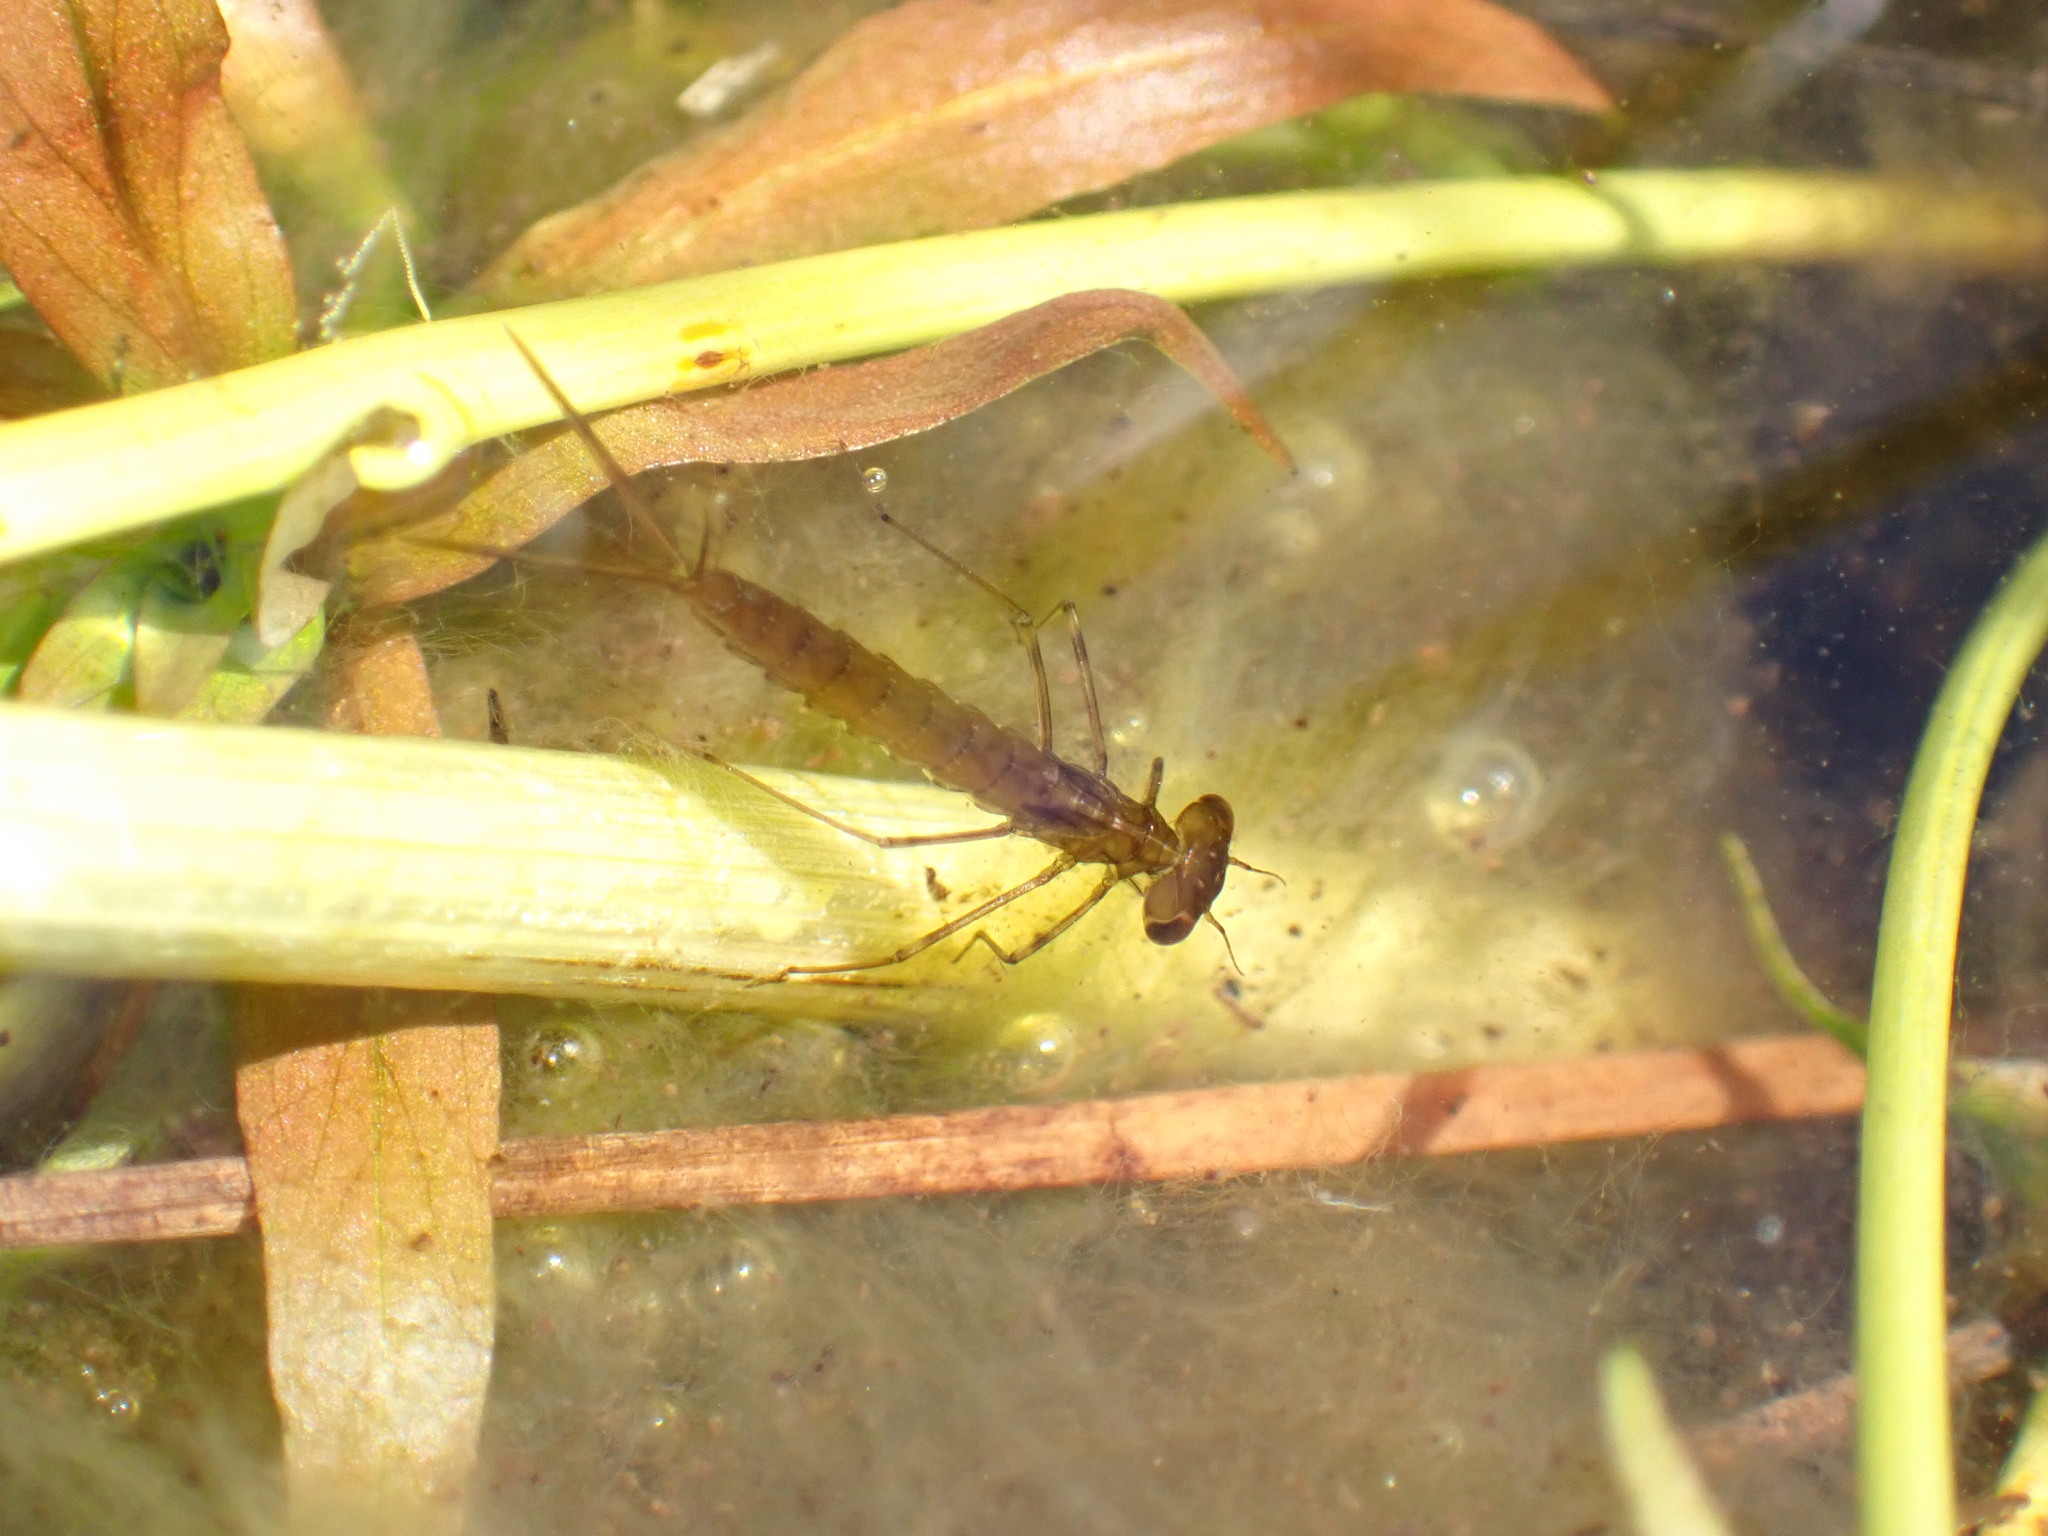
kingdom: Animalia
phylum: Arthropoda
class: Insecta
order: Odonata
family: Lestidae
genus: Austrolestes
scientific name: Austrolestes colensonis
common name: Blue damselfly
